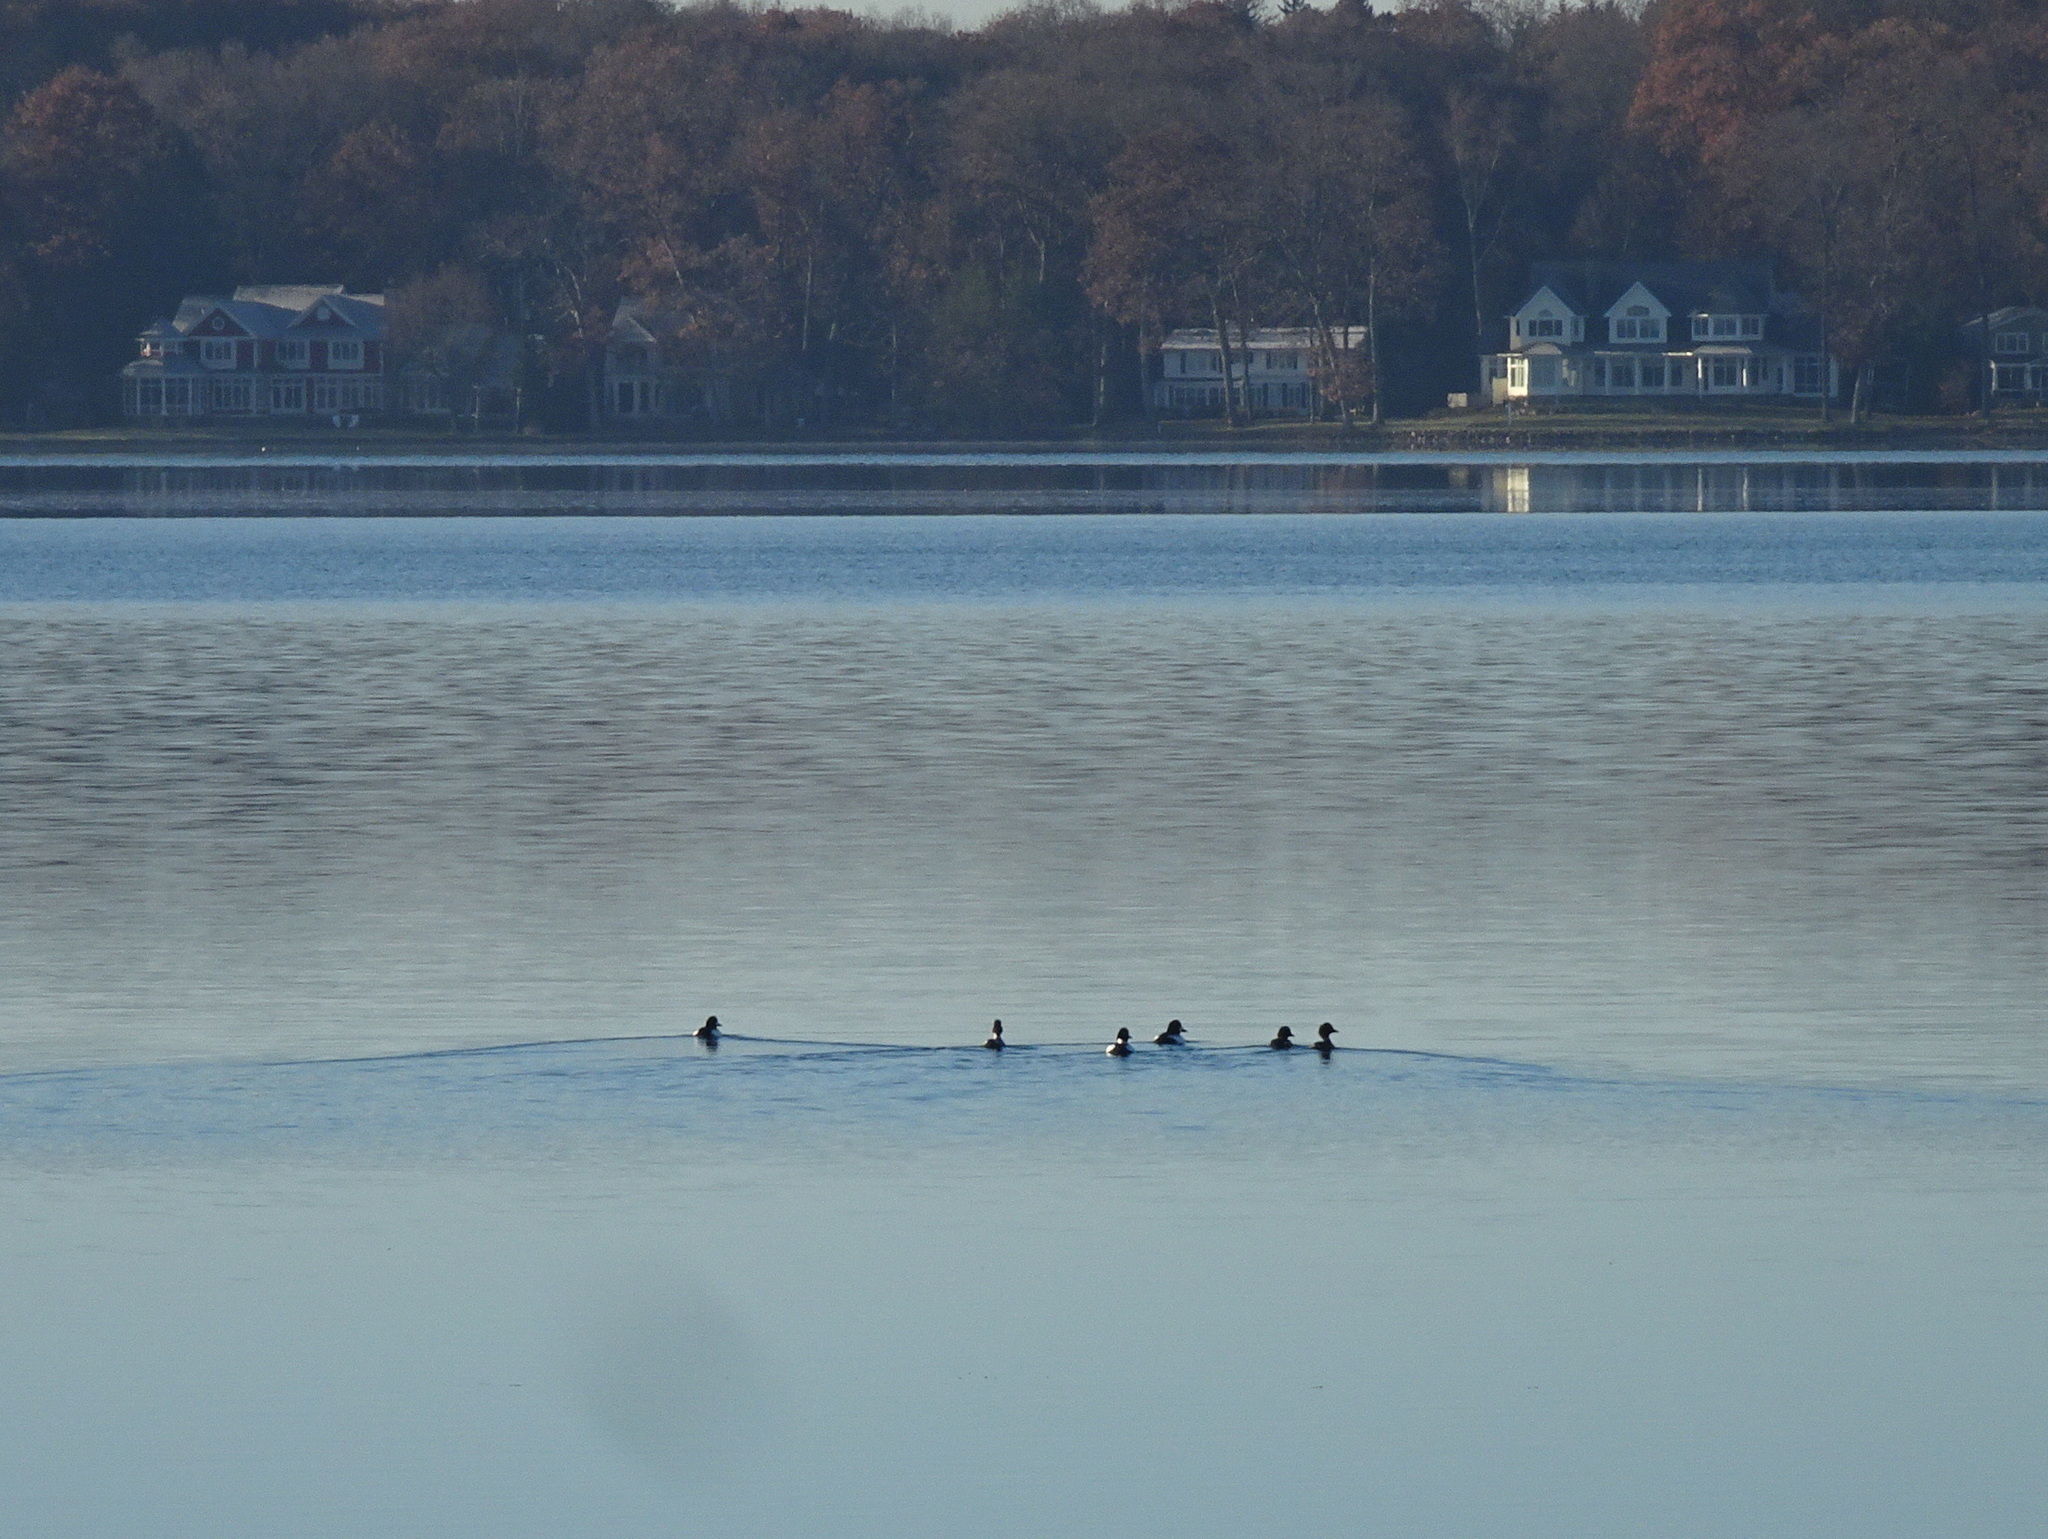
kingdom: Animalia
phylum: Chordata
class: Aves
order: Anseriformes
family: Anatidae
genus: Bucephala
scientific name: Bucephala clangula
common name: Common goldeneye
